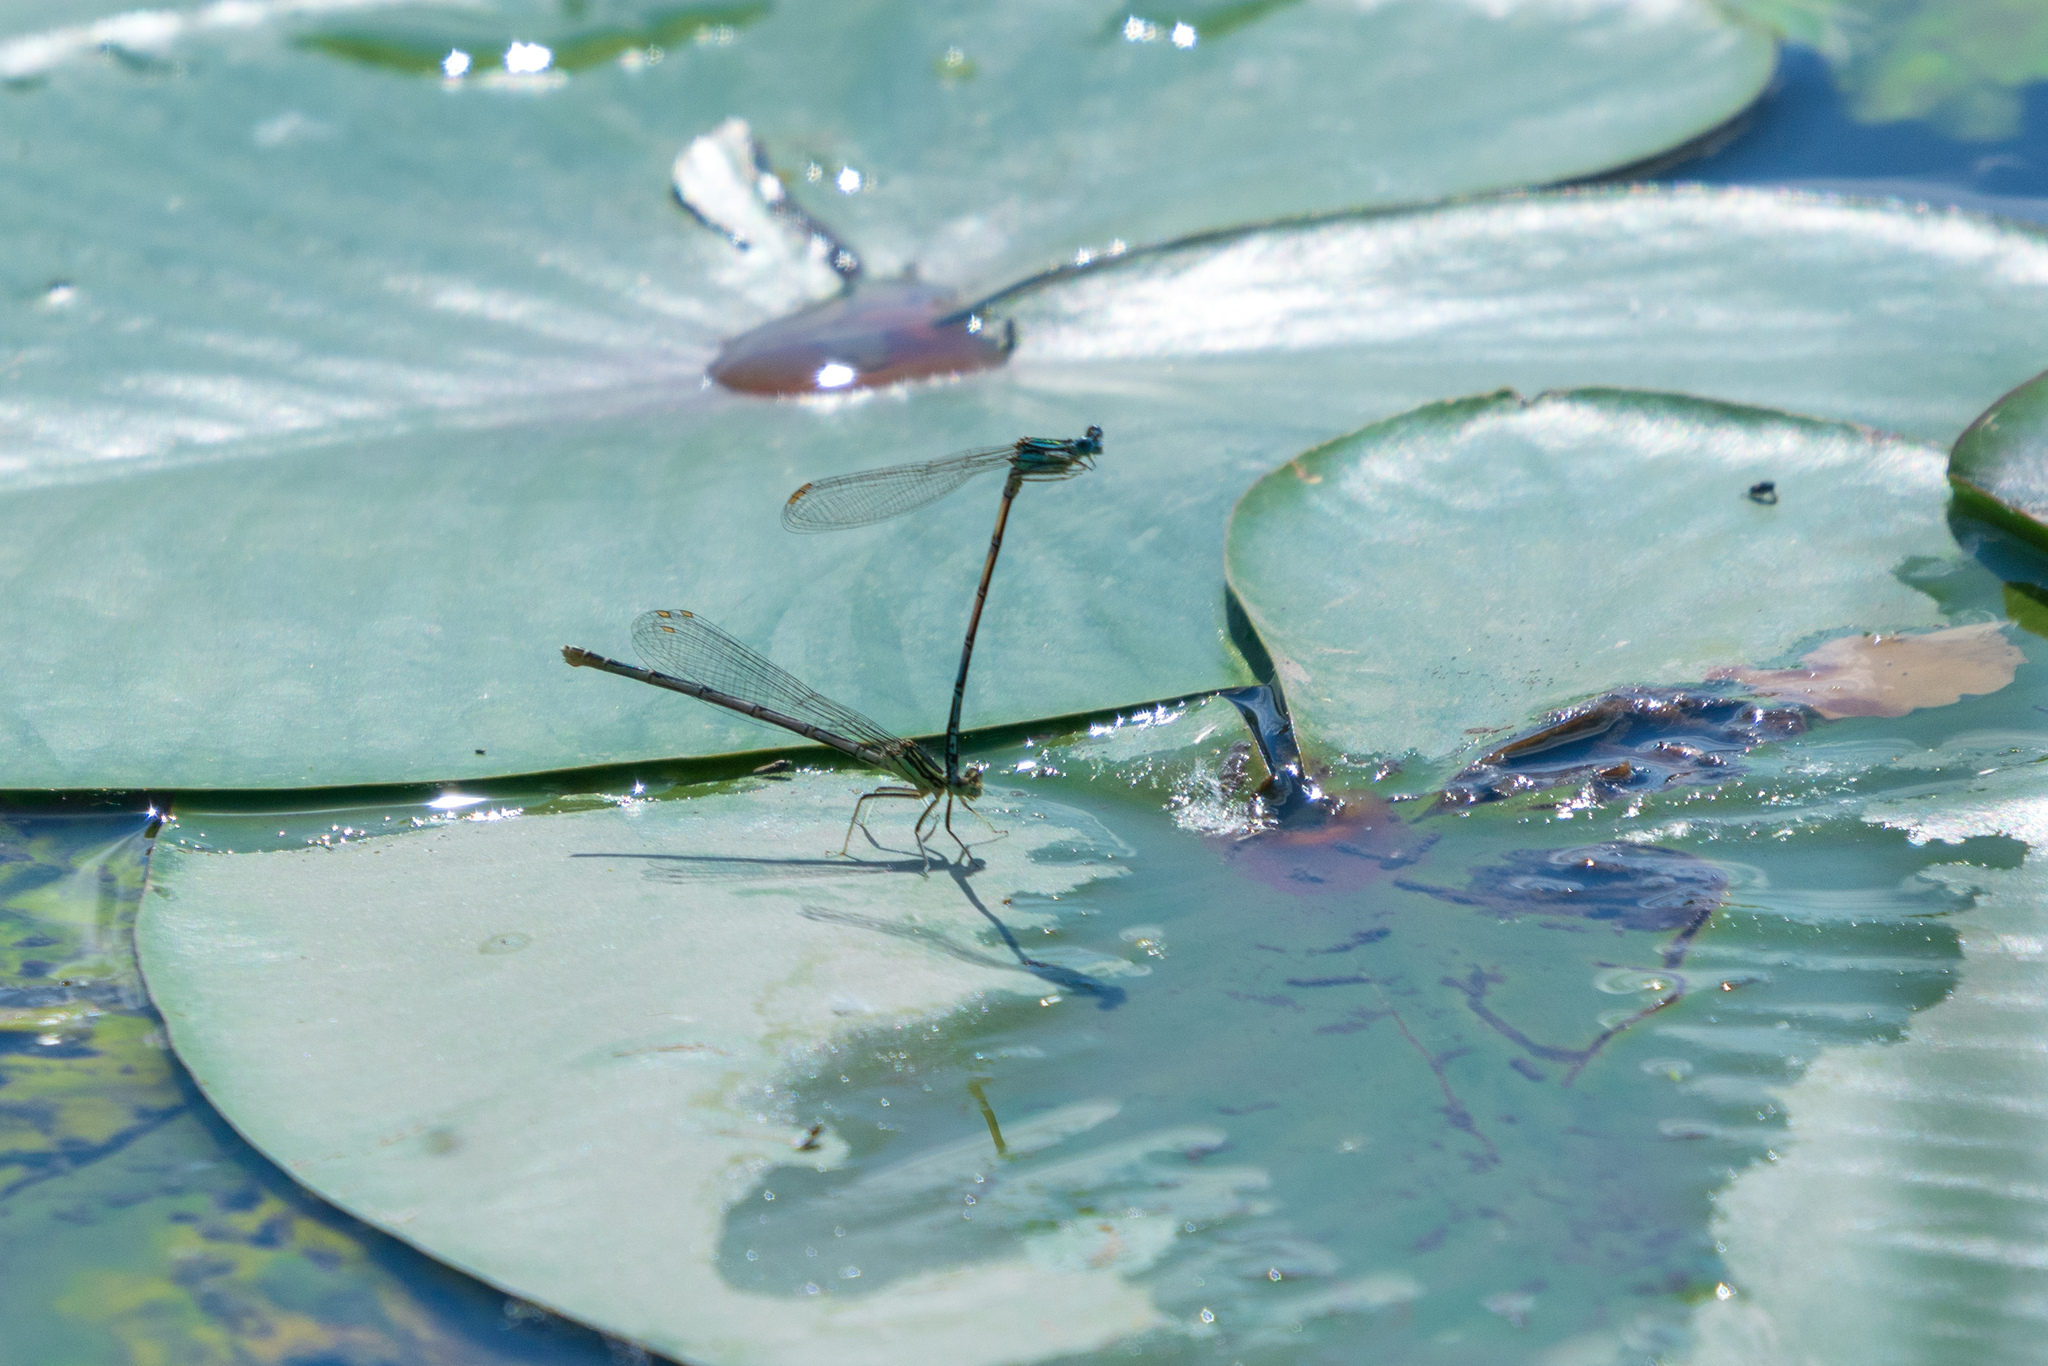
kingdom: Animalia
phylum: Arthropoda
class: Insecta
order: Odonata
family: Platycnemididae
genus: Platycnemis
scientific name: Platycnemis pennipes
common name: White-legged damselfly
